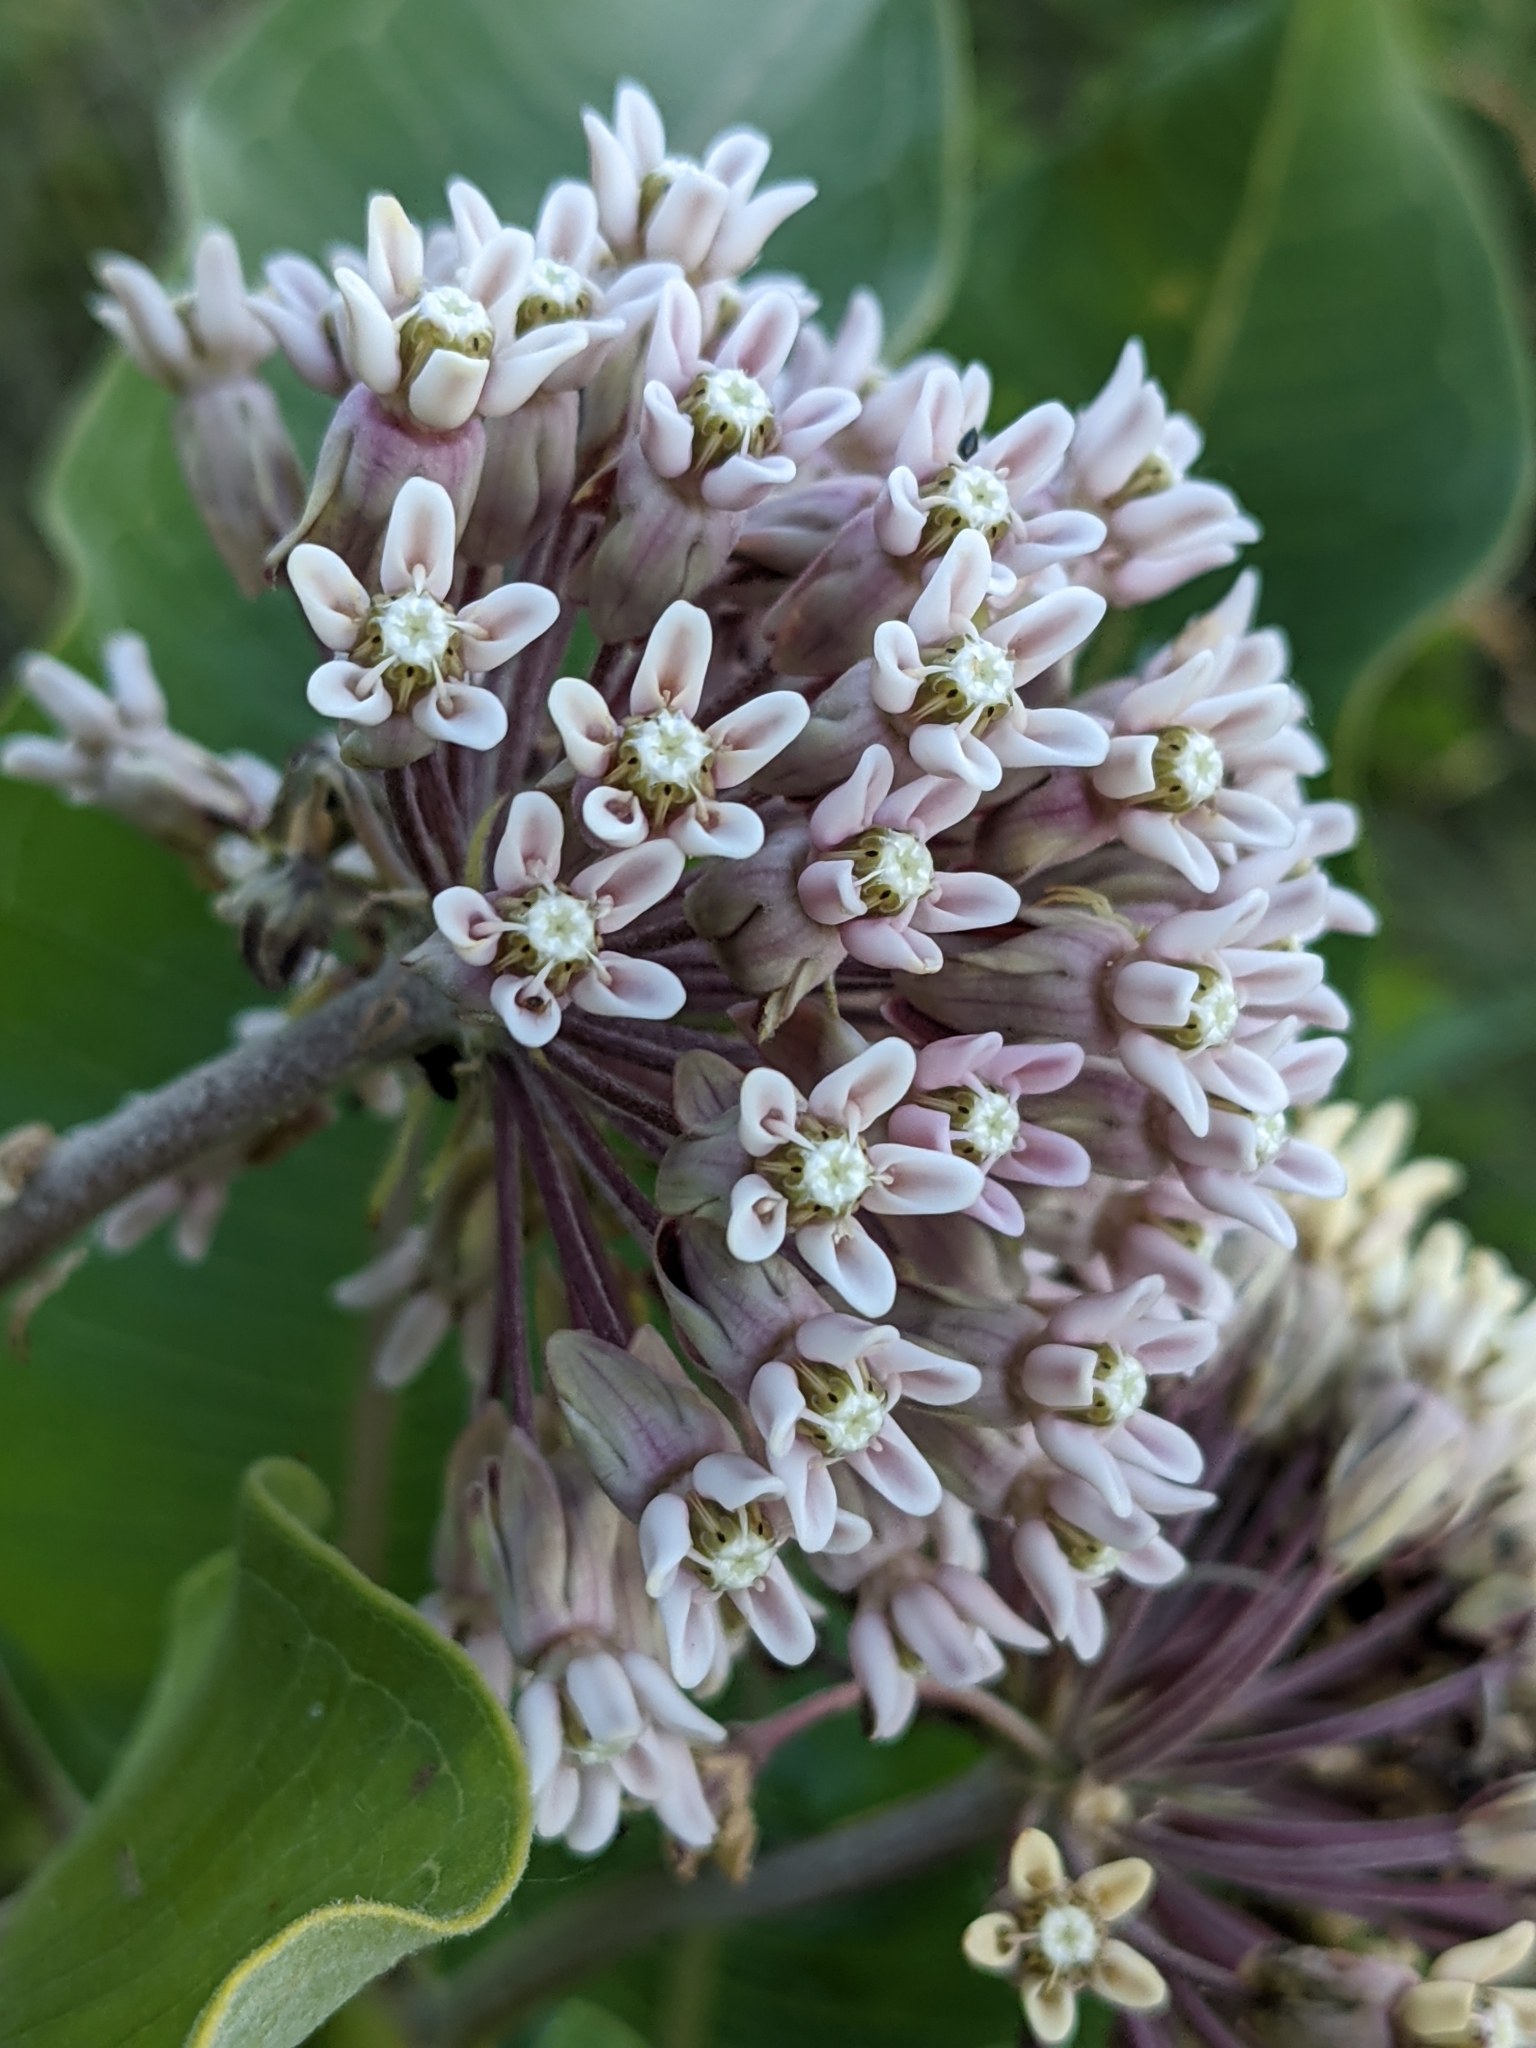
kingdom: Plantae
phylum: Tracheophyta
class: Magnoliopsida
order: Gentianales
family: Apocynaceae
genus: Asclepias
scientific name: Asclepias syriaca
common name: Common milkweed
